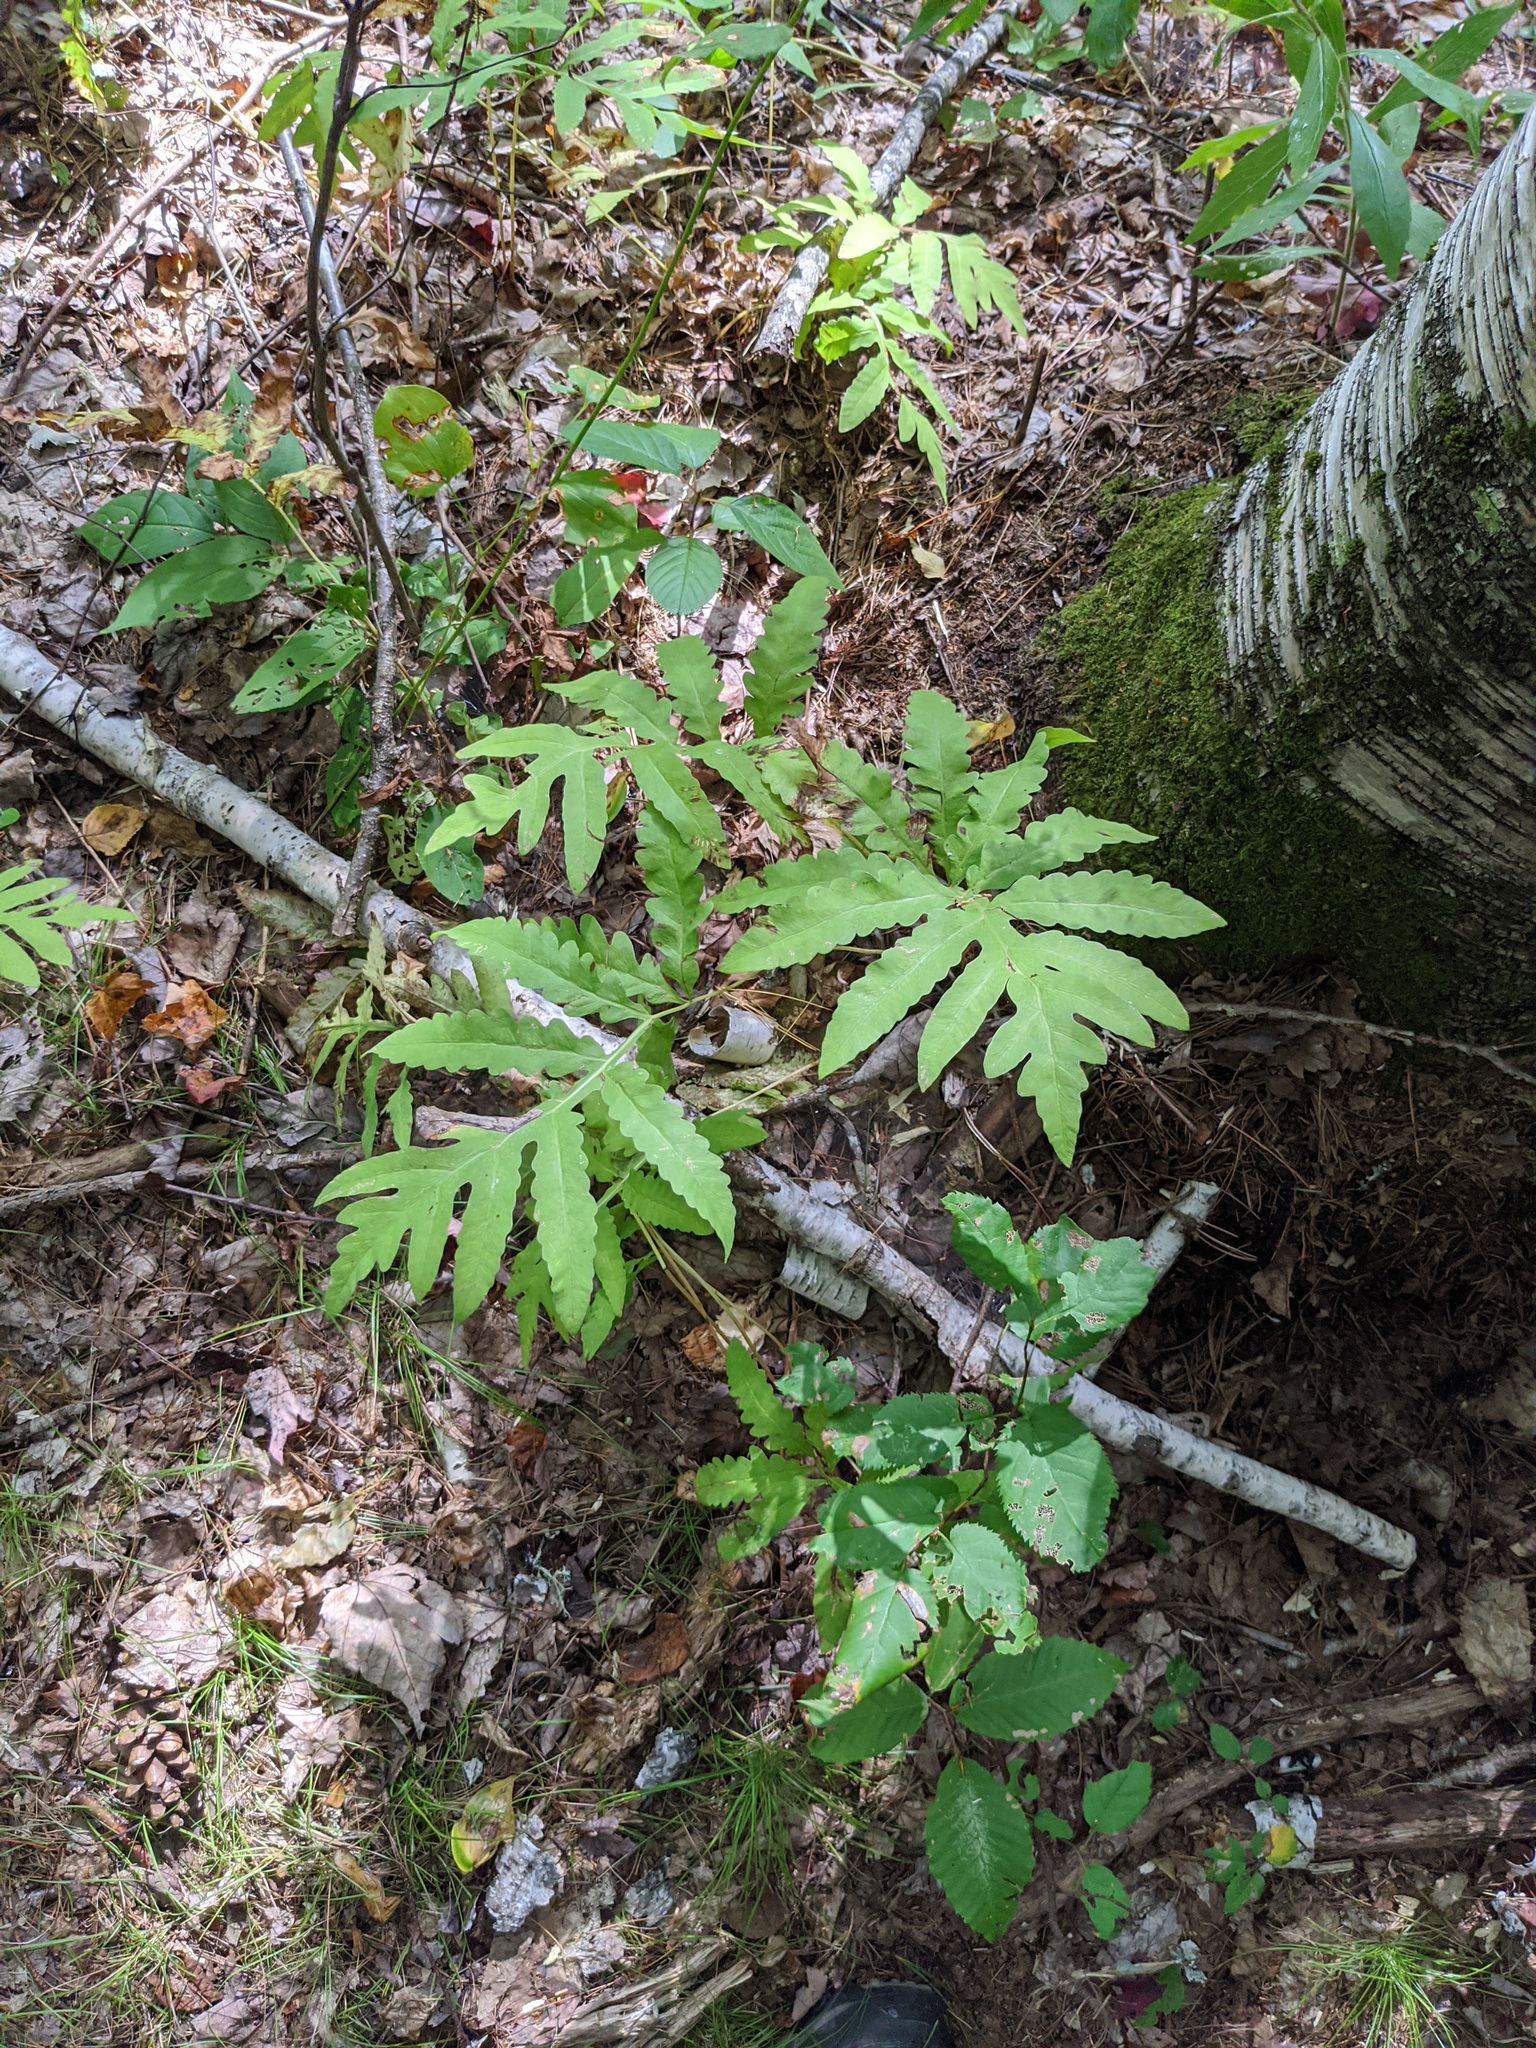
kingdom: Plantae
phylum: Tracheophyta
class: Polypodiopsida
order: Polypodiales
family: Onocleaceae
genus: Onoclea
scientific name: Onoclea sensibilis
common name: Sensitive fern
